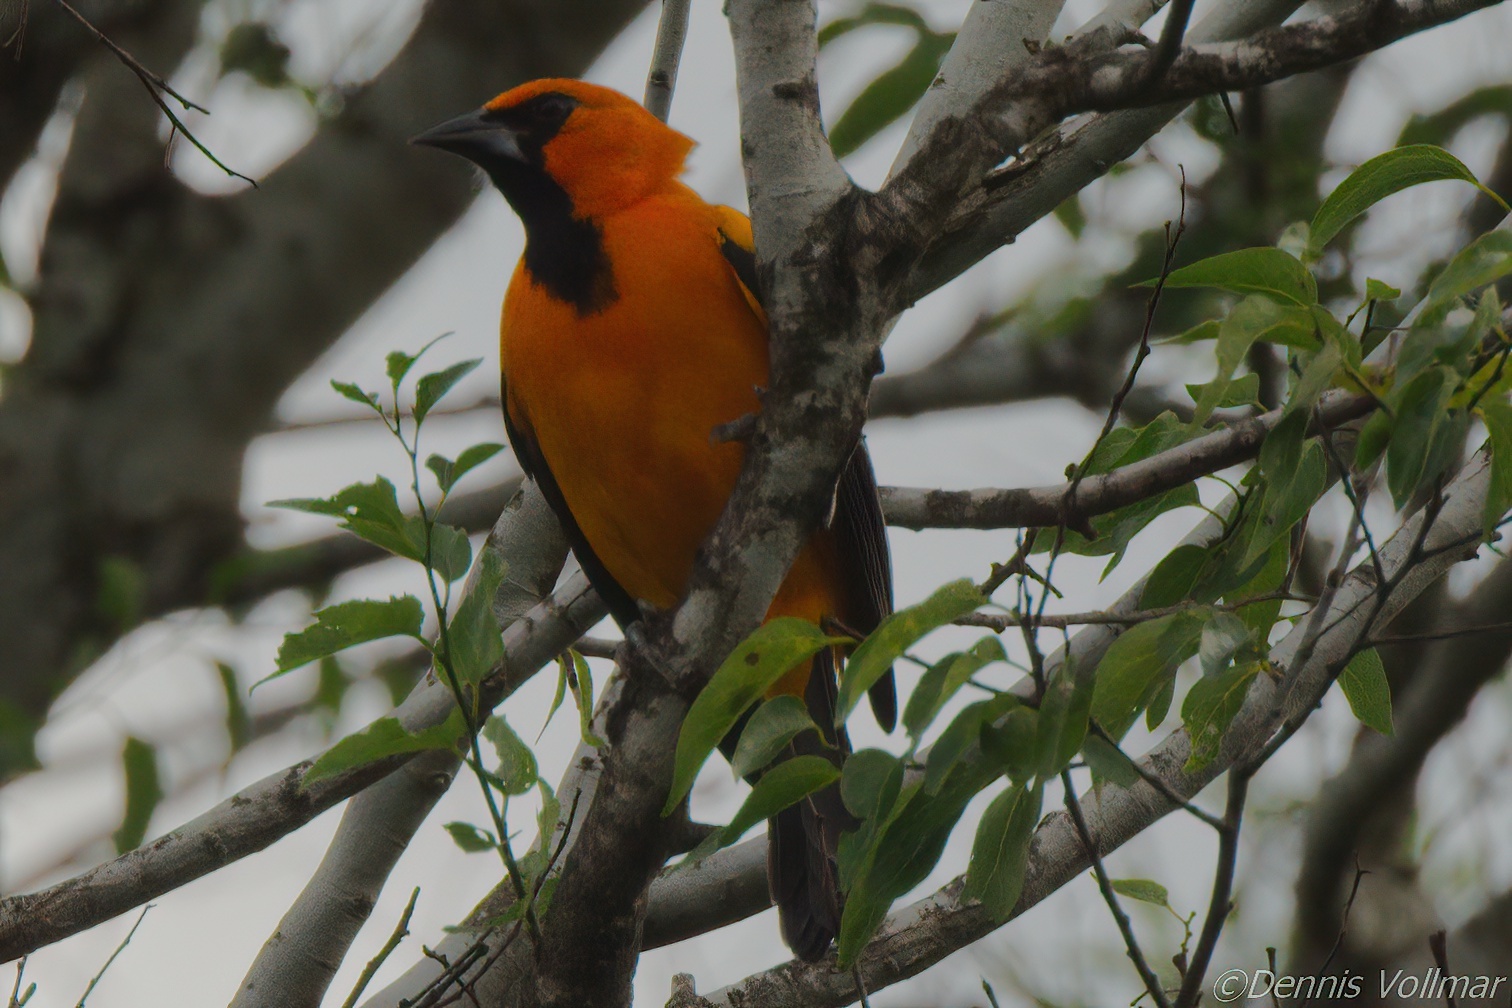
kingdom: Animalia
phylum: Chordata
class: Aves
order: Passeriformes
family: Icteridae
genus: Icterus
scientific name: Icterus gularis
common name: Altamira oriole
